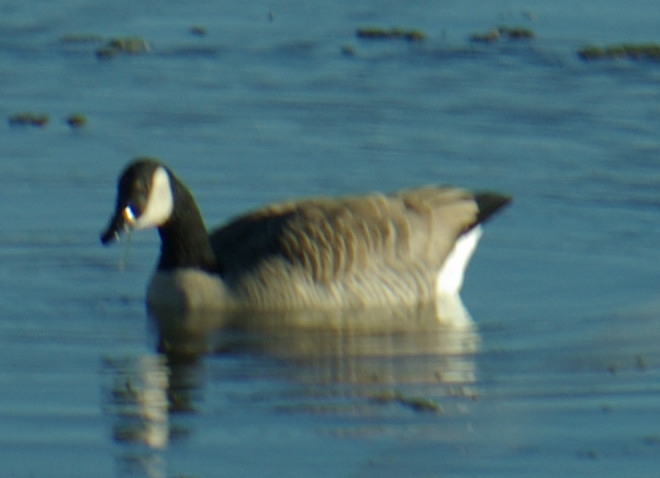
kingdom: Animalia
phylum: Chordata
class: Aves
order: Anseriformes
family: Anatidae
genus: Branta
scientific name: Branta canadensis
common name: Canada goose
